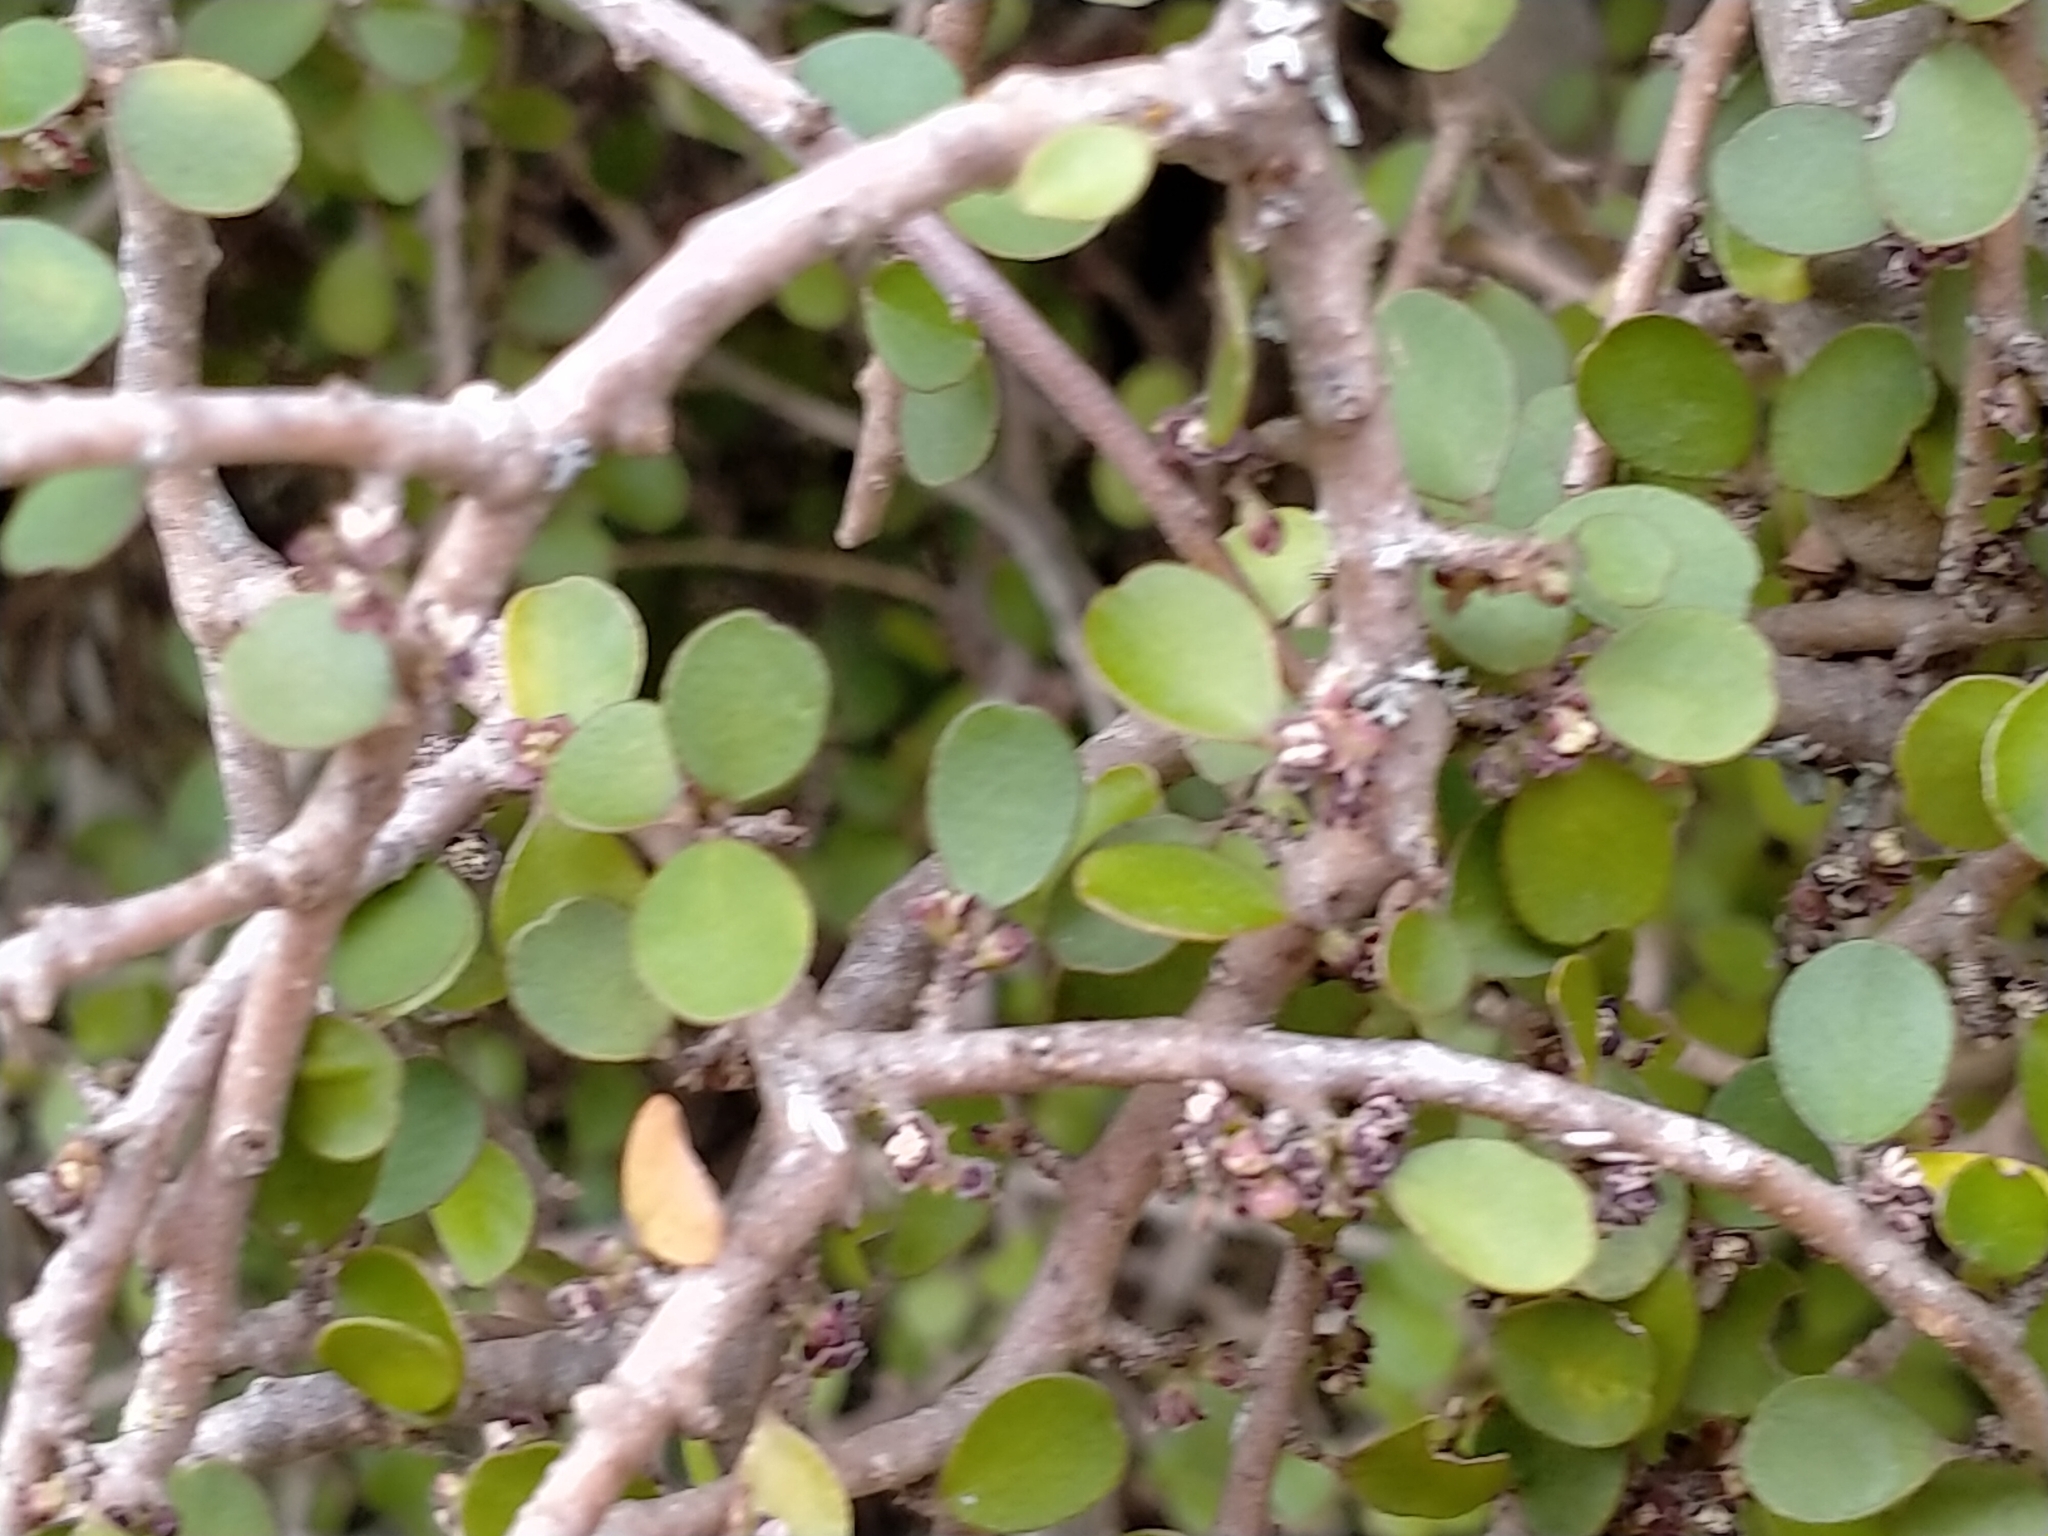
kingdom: Plantae
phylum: Tracheophyta
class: Magnoliopsida
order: Ericales
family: Primulaceae
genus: Myrsine
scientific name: Myrsine divaricata
